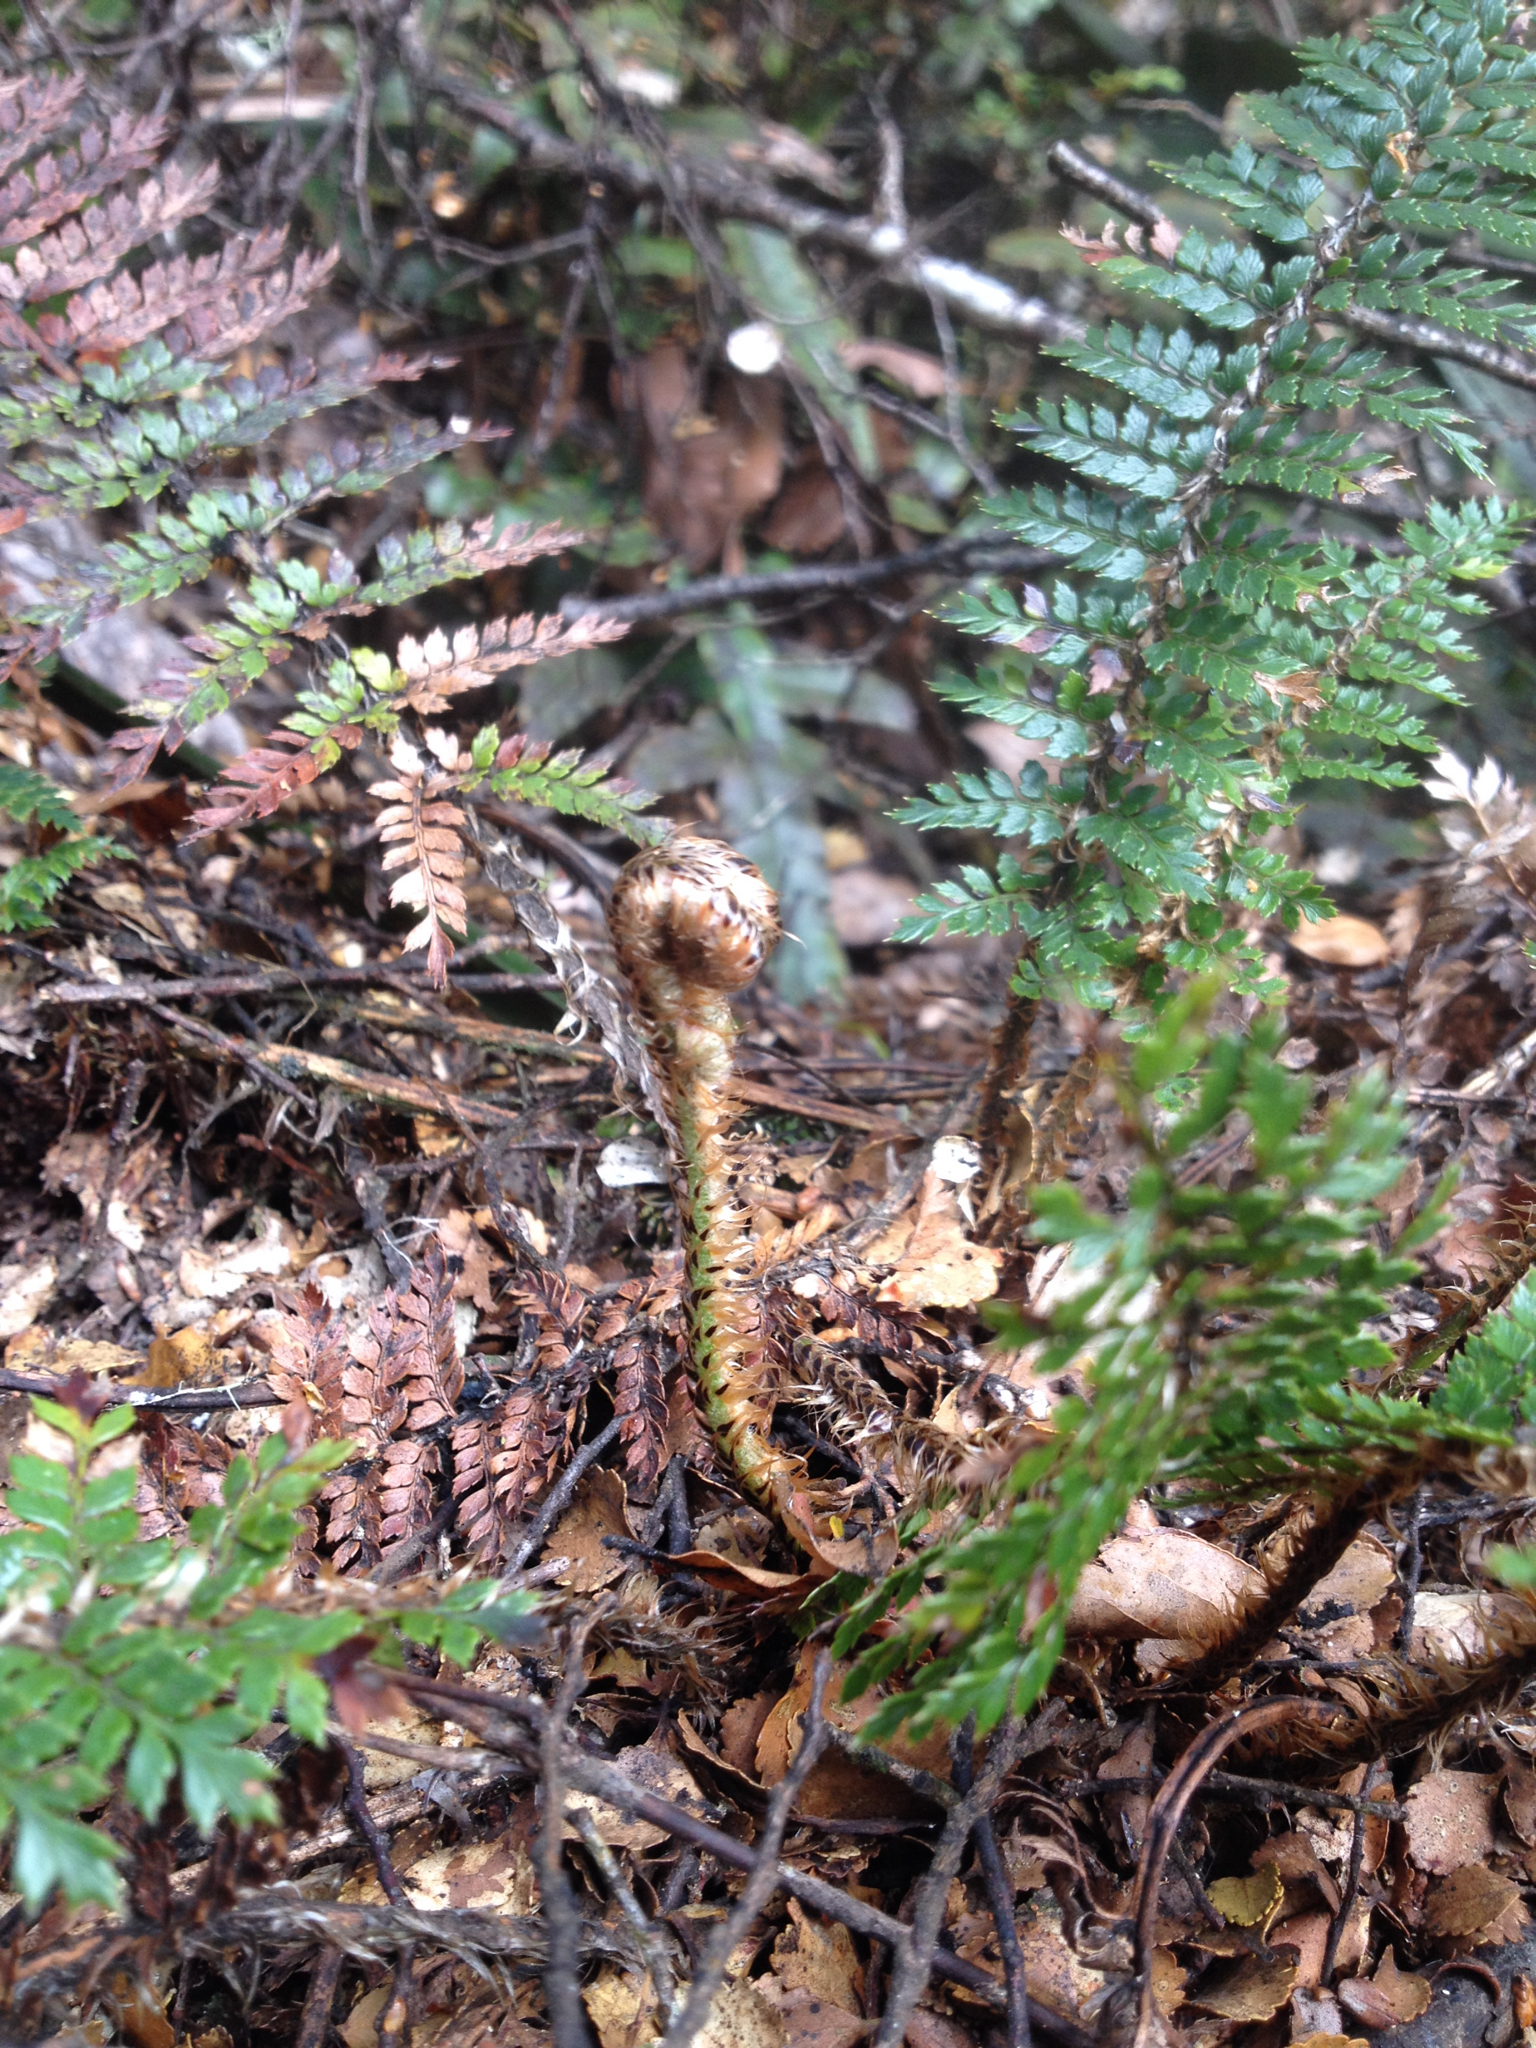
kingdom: Plantae
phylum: Tracheophyta
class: Polypodiopsida
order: Polypodiales
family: Dryopteridaceae
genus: Polystichum
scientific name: Polystichum vestitum
